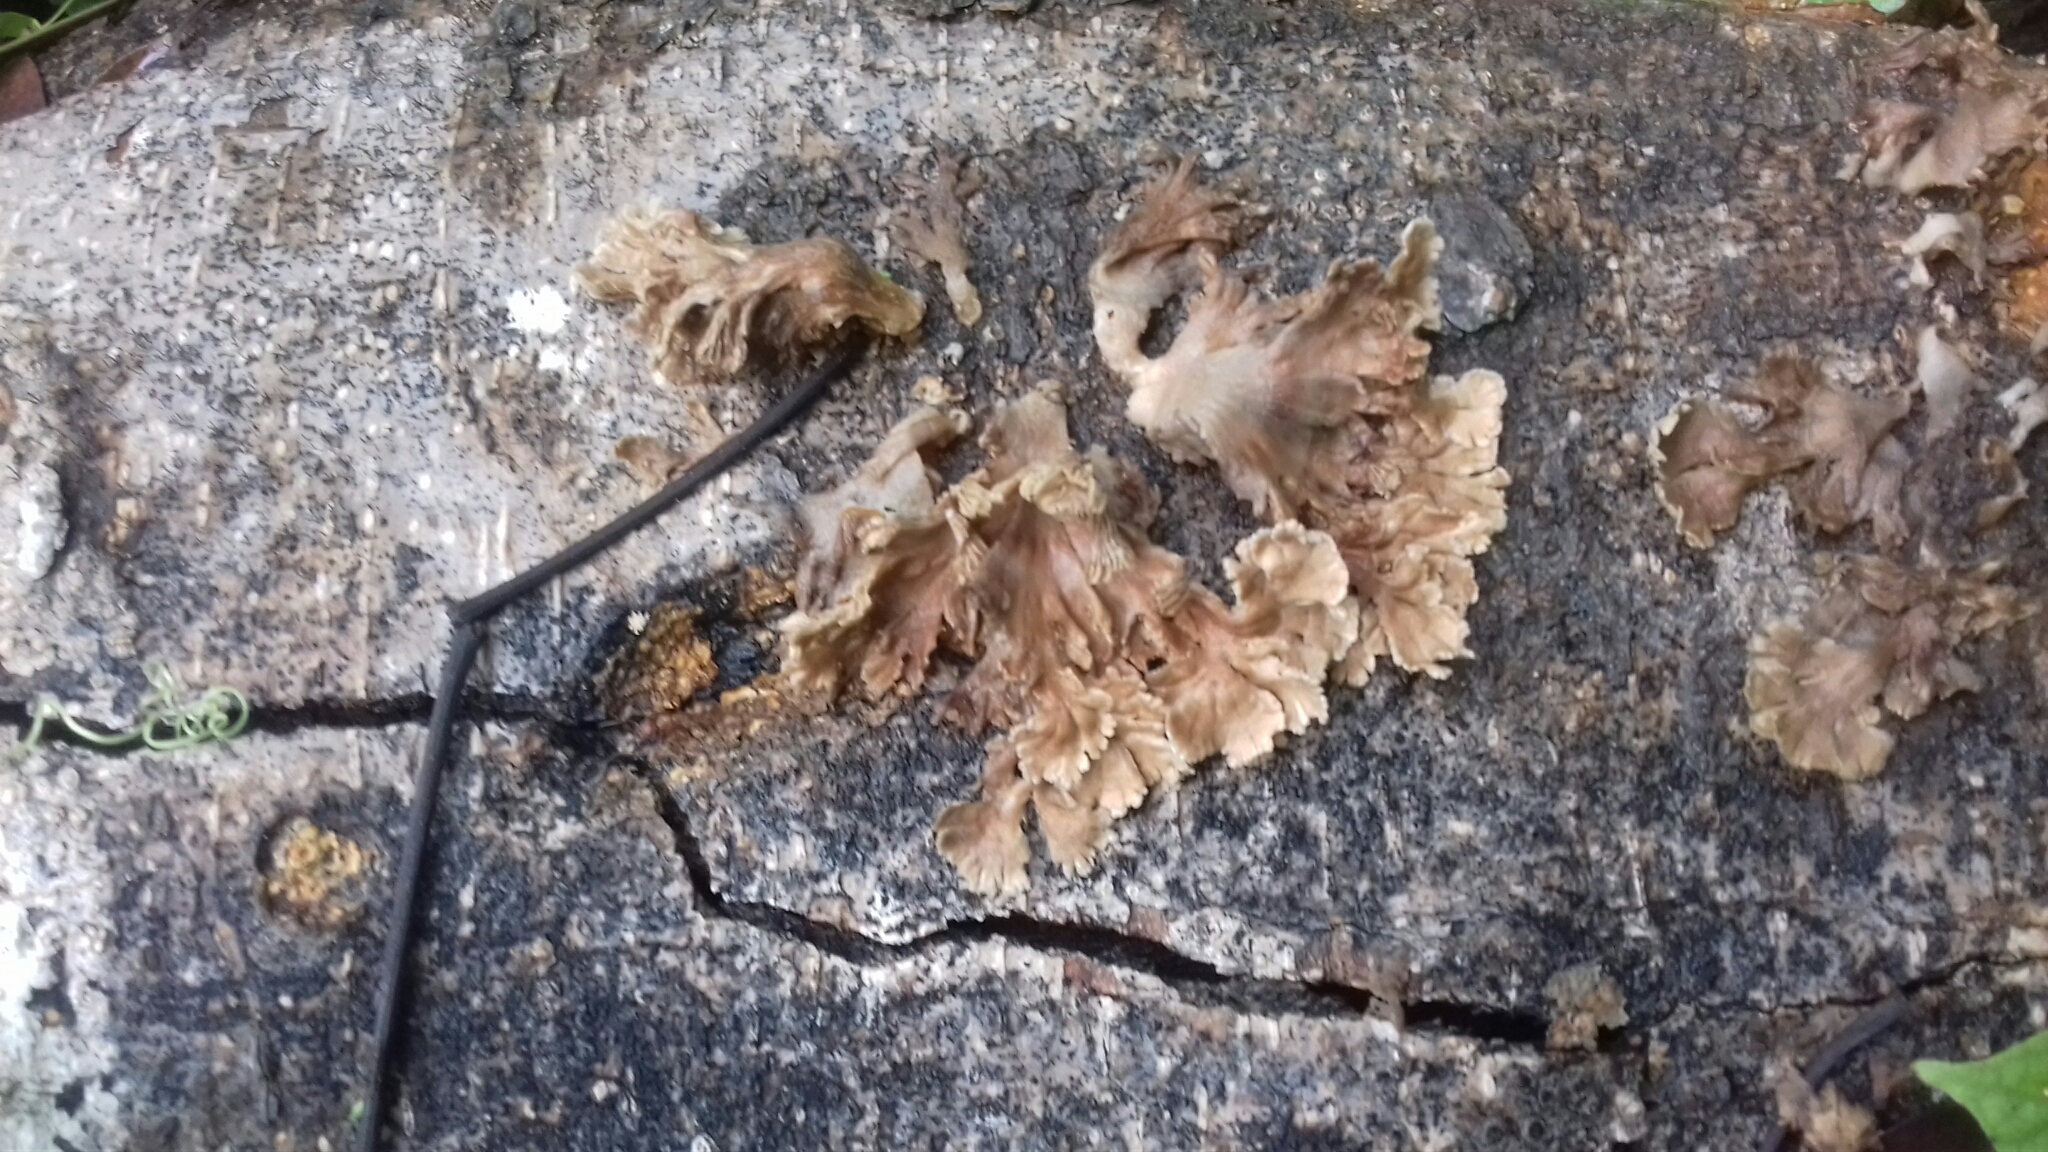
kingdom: Fungi
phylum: Basidiomycota
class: Agaricomycetes
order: Agaricales
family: Schizophyllaceae
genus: Schizophyllum
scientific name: Schizophyllum commune
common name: Common porecrust
